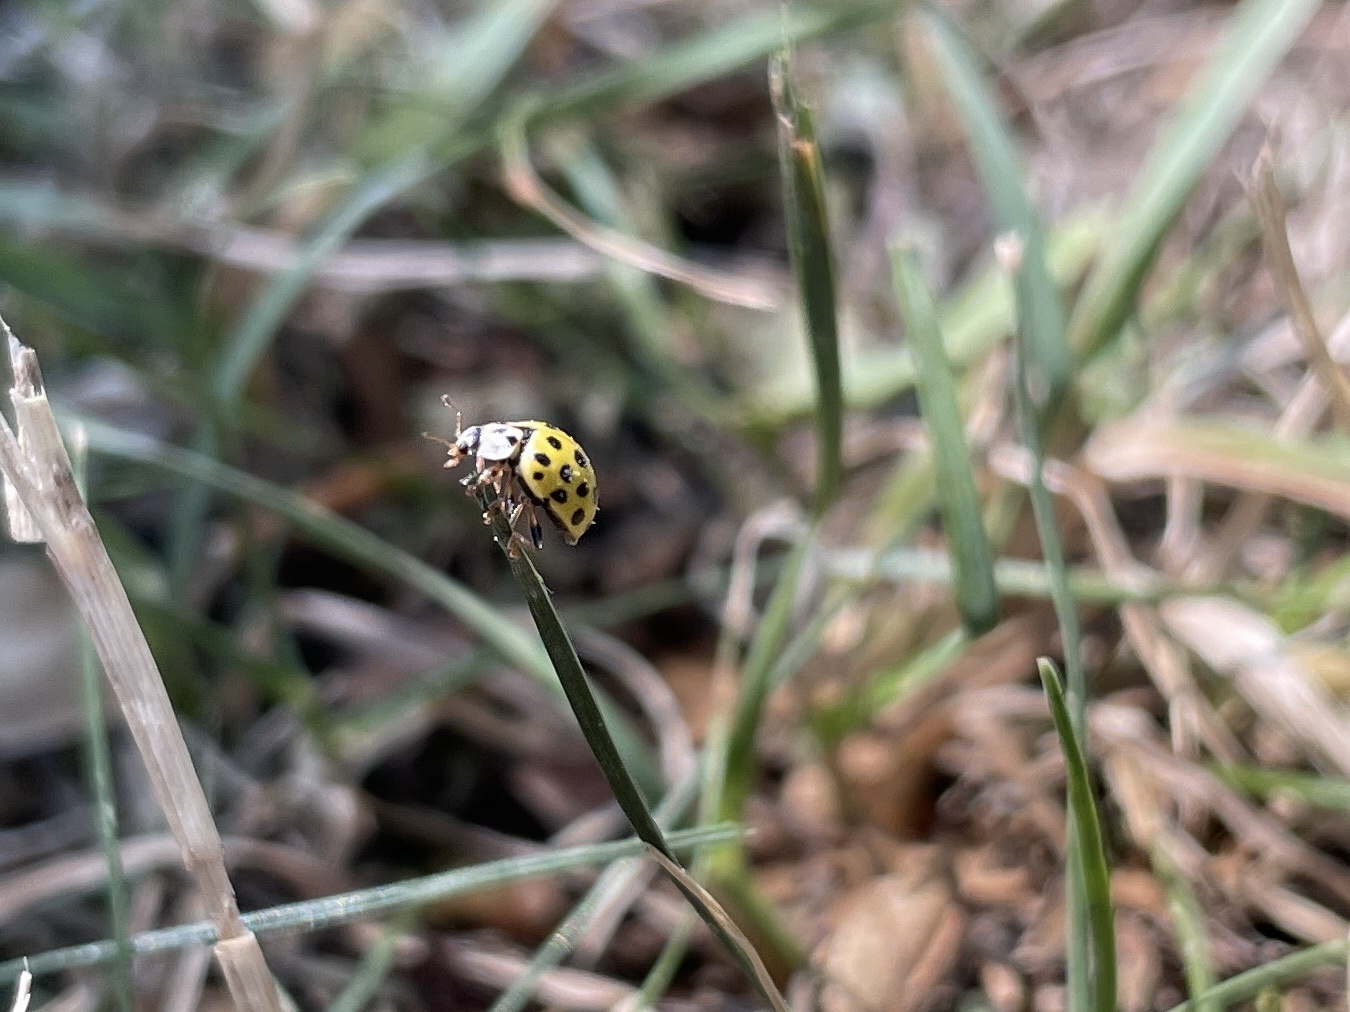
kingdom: Animalia
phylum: Arthropoda
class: Insecta
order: Coleoptera
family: Coccinellidae
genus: Psyllobora
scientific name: Psyllobora vigintiduopunctata
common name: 22-spot ladybird
